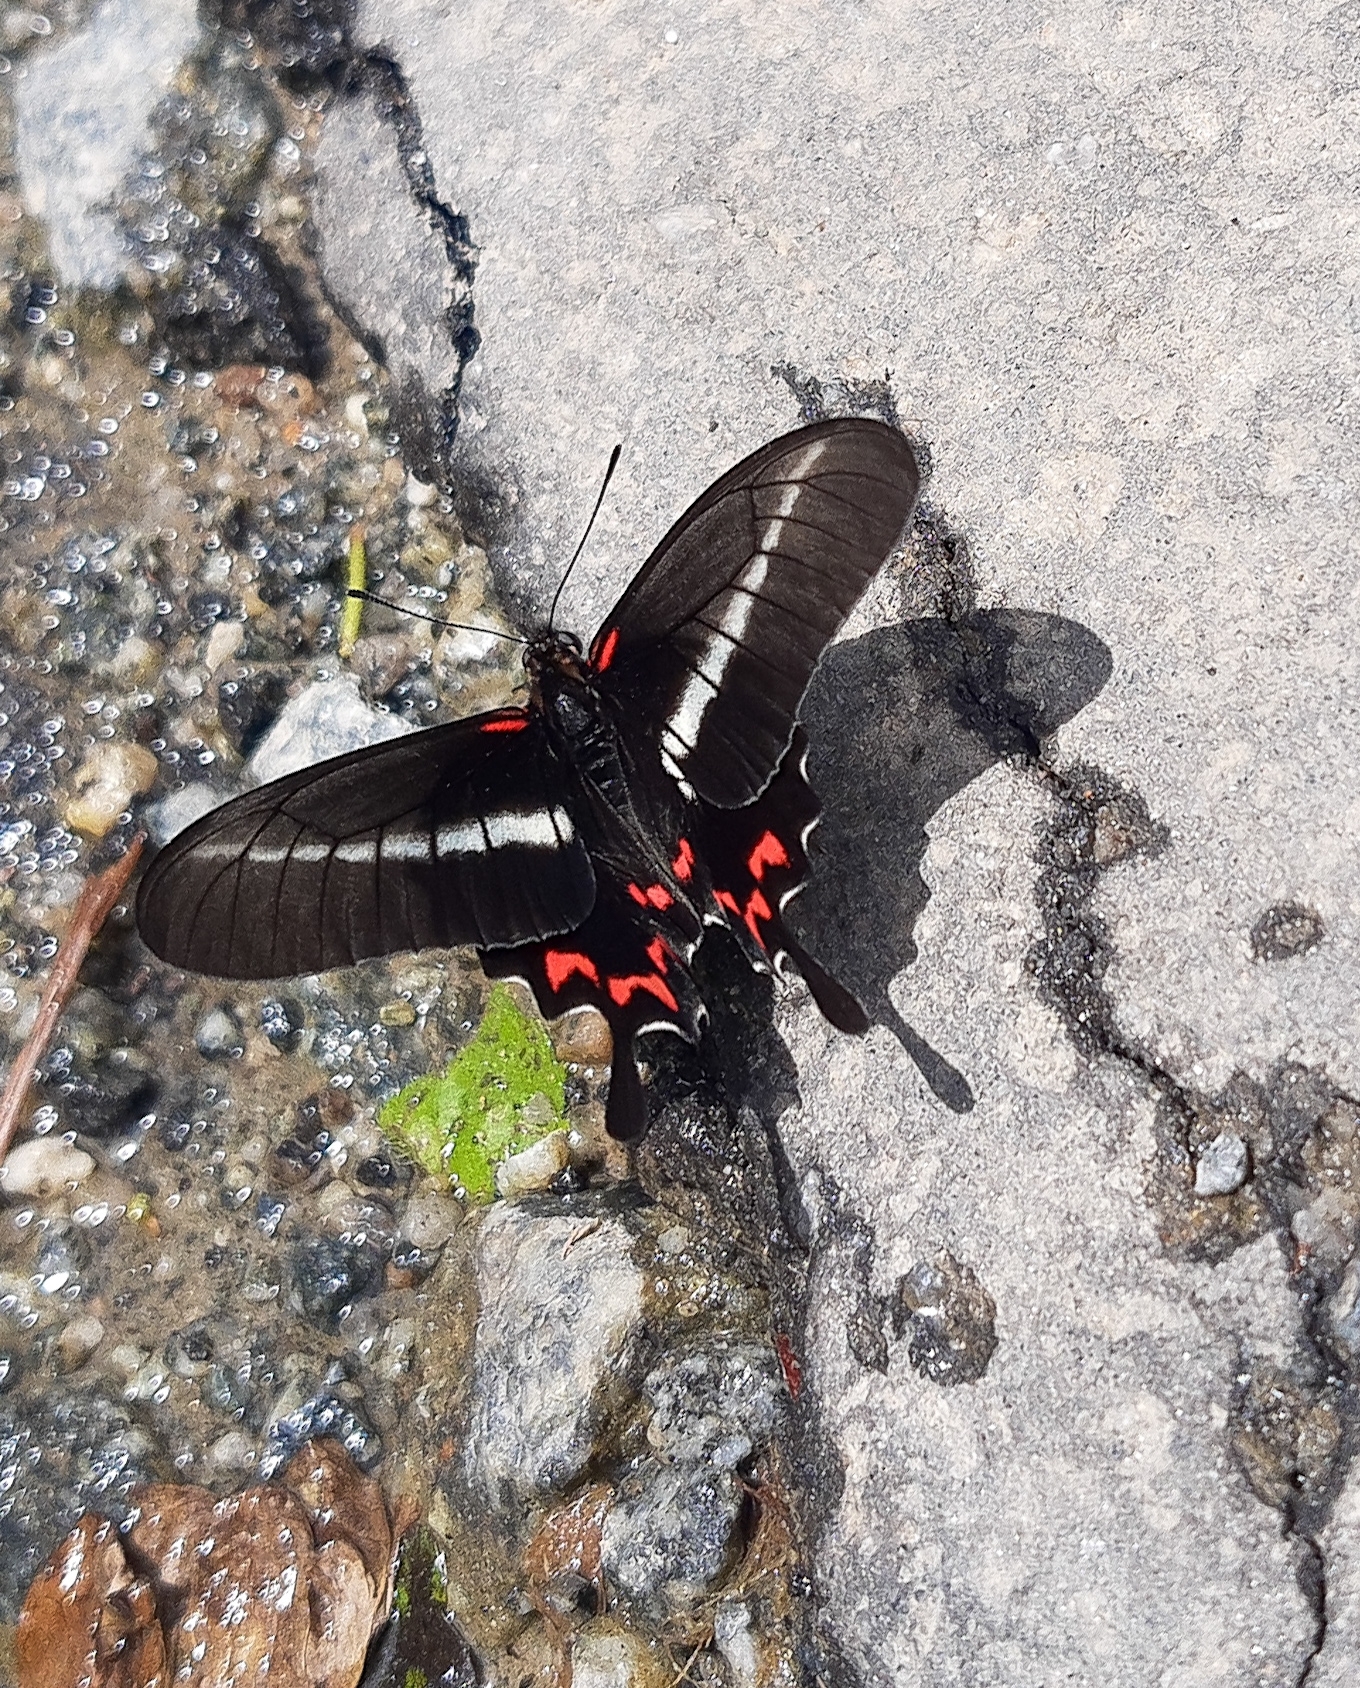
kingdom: Animalia
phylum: Arthropoda
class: Insecta
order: Lepidoptera
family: Papilionidae
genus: Mimoides
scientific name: Mimoides lysithous
